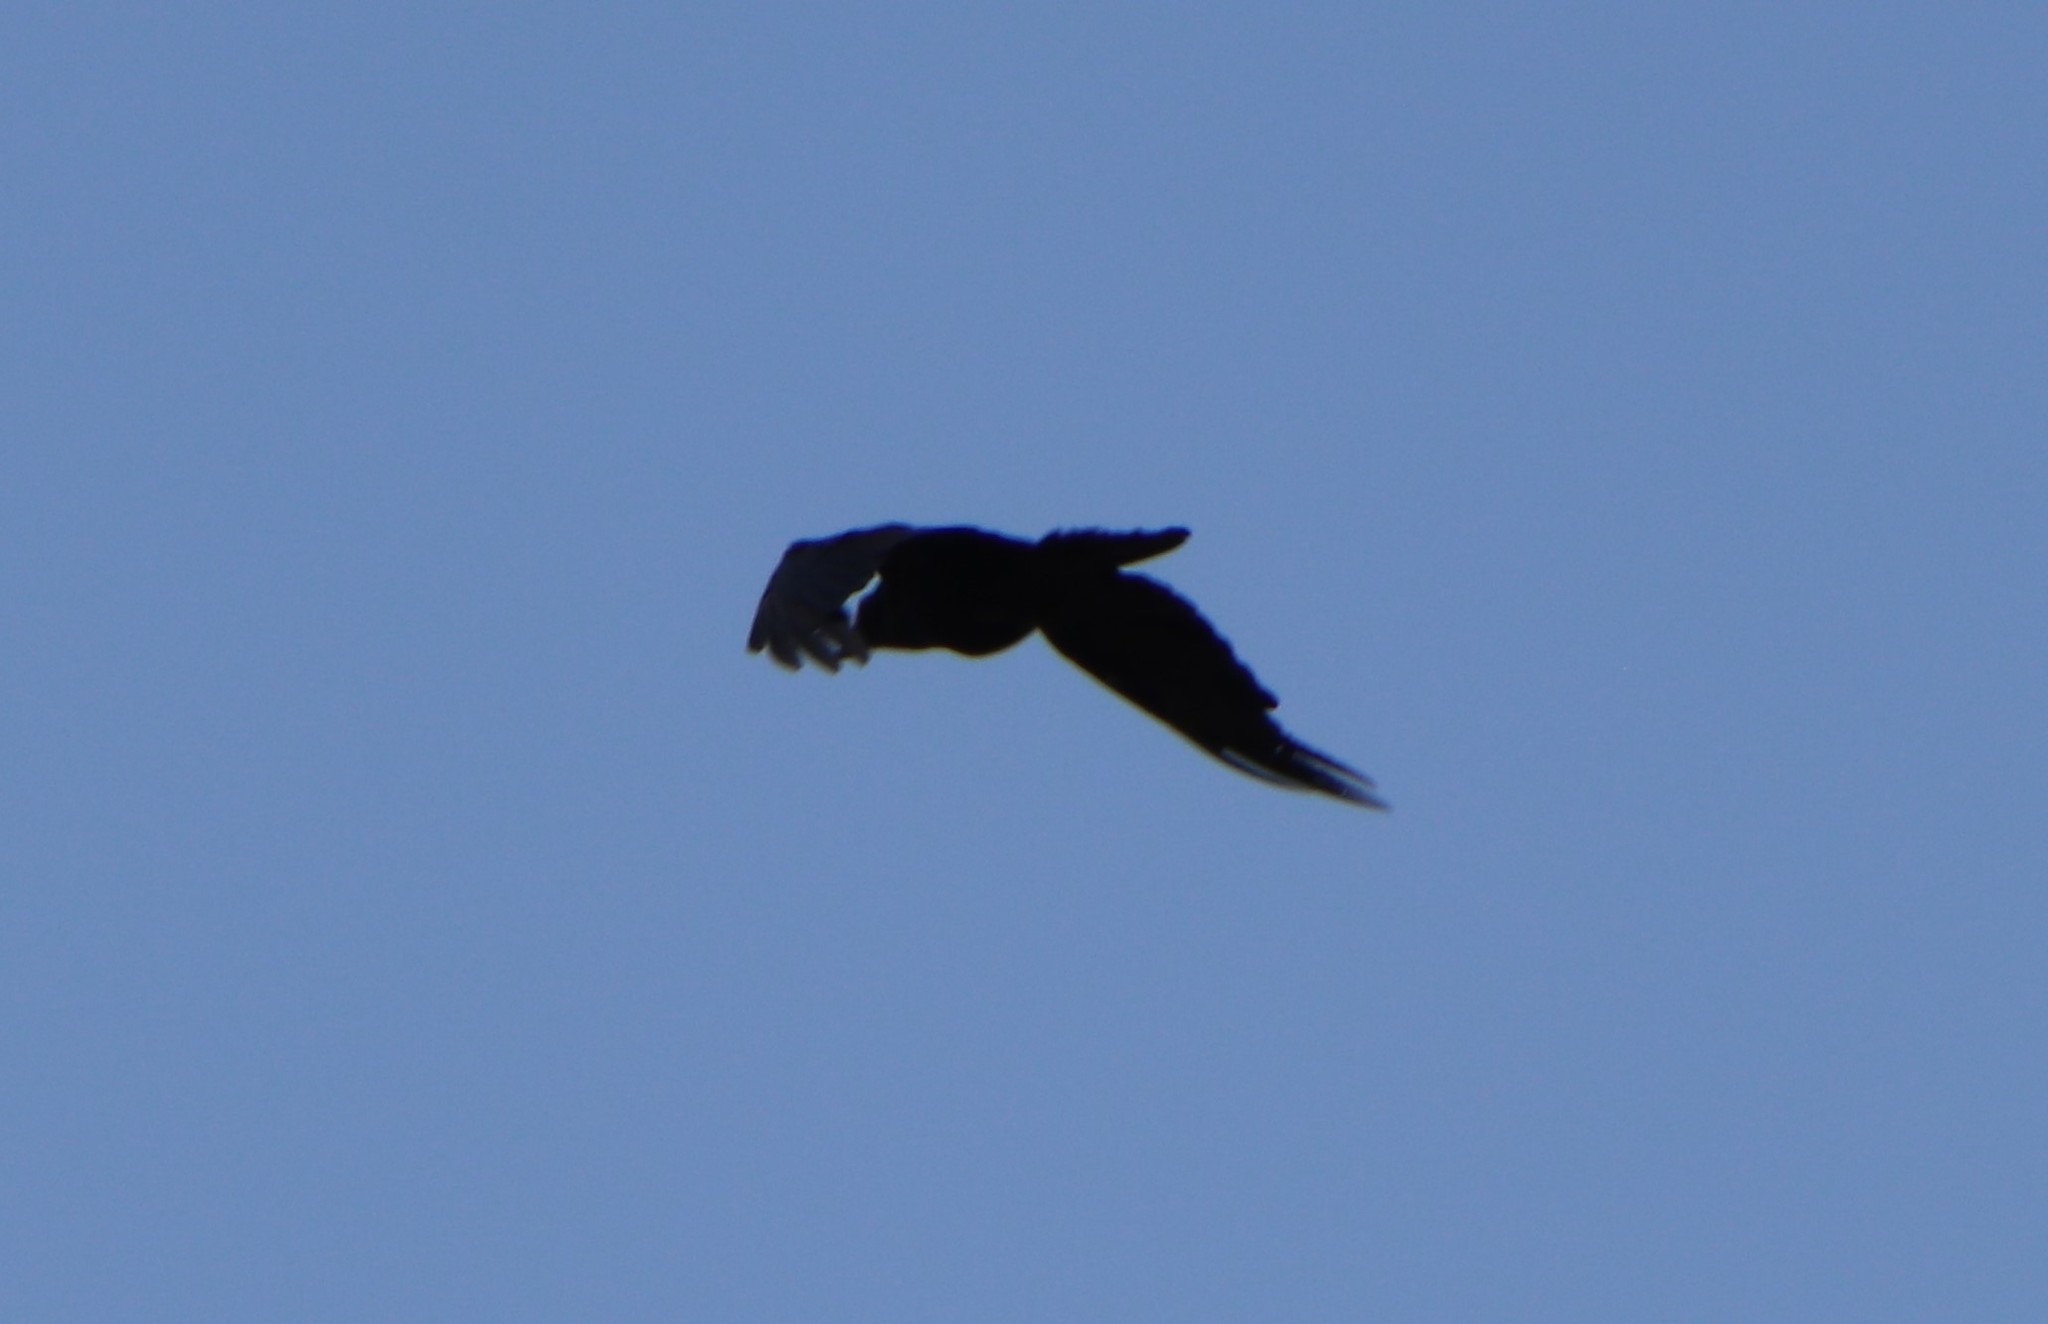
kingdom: Animalia
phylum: Chordata
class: Aves
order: Passeriformes
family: Corvidae
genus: Corvus
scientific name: Corvus brachyrhynchos
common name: American crow
